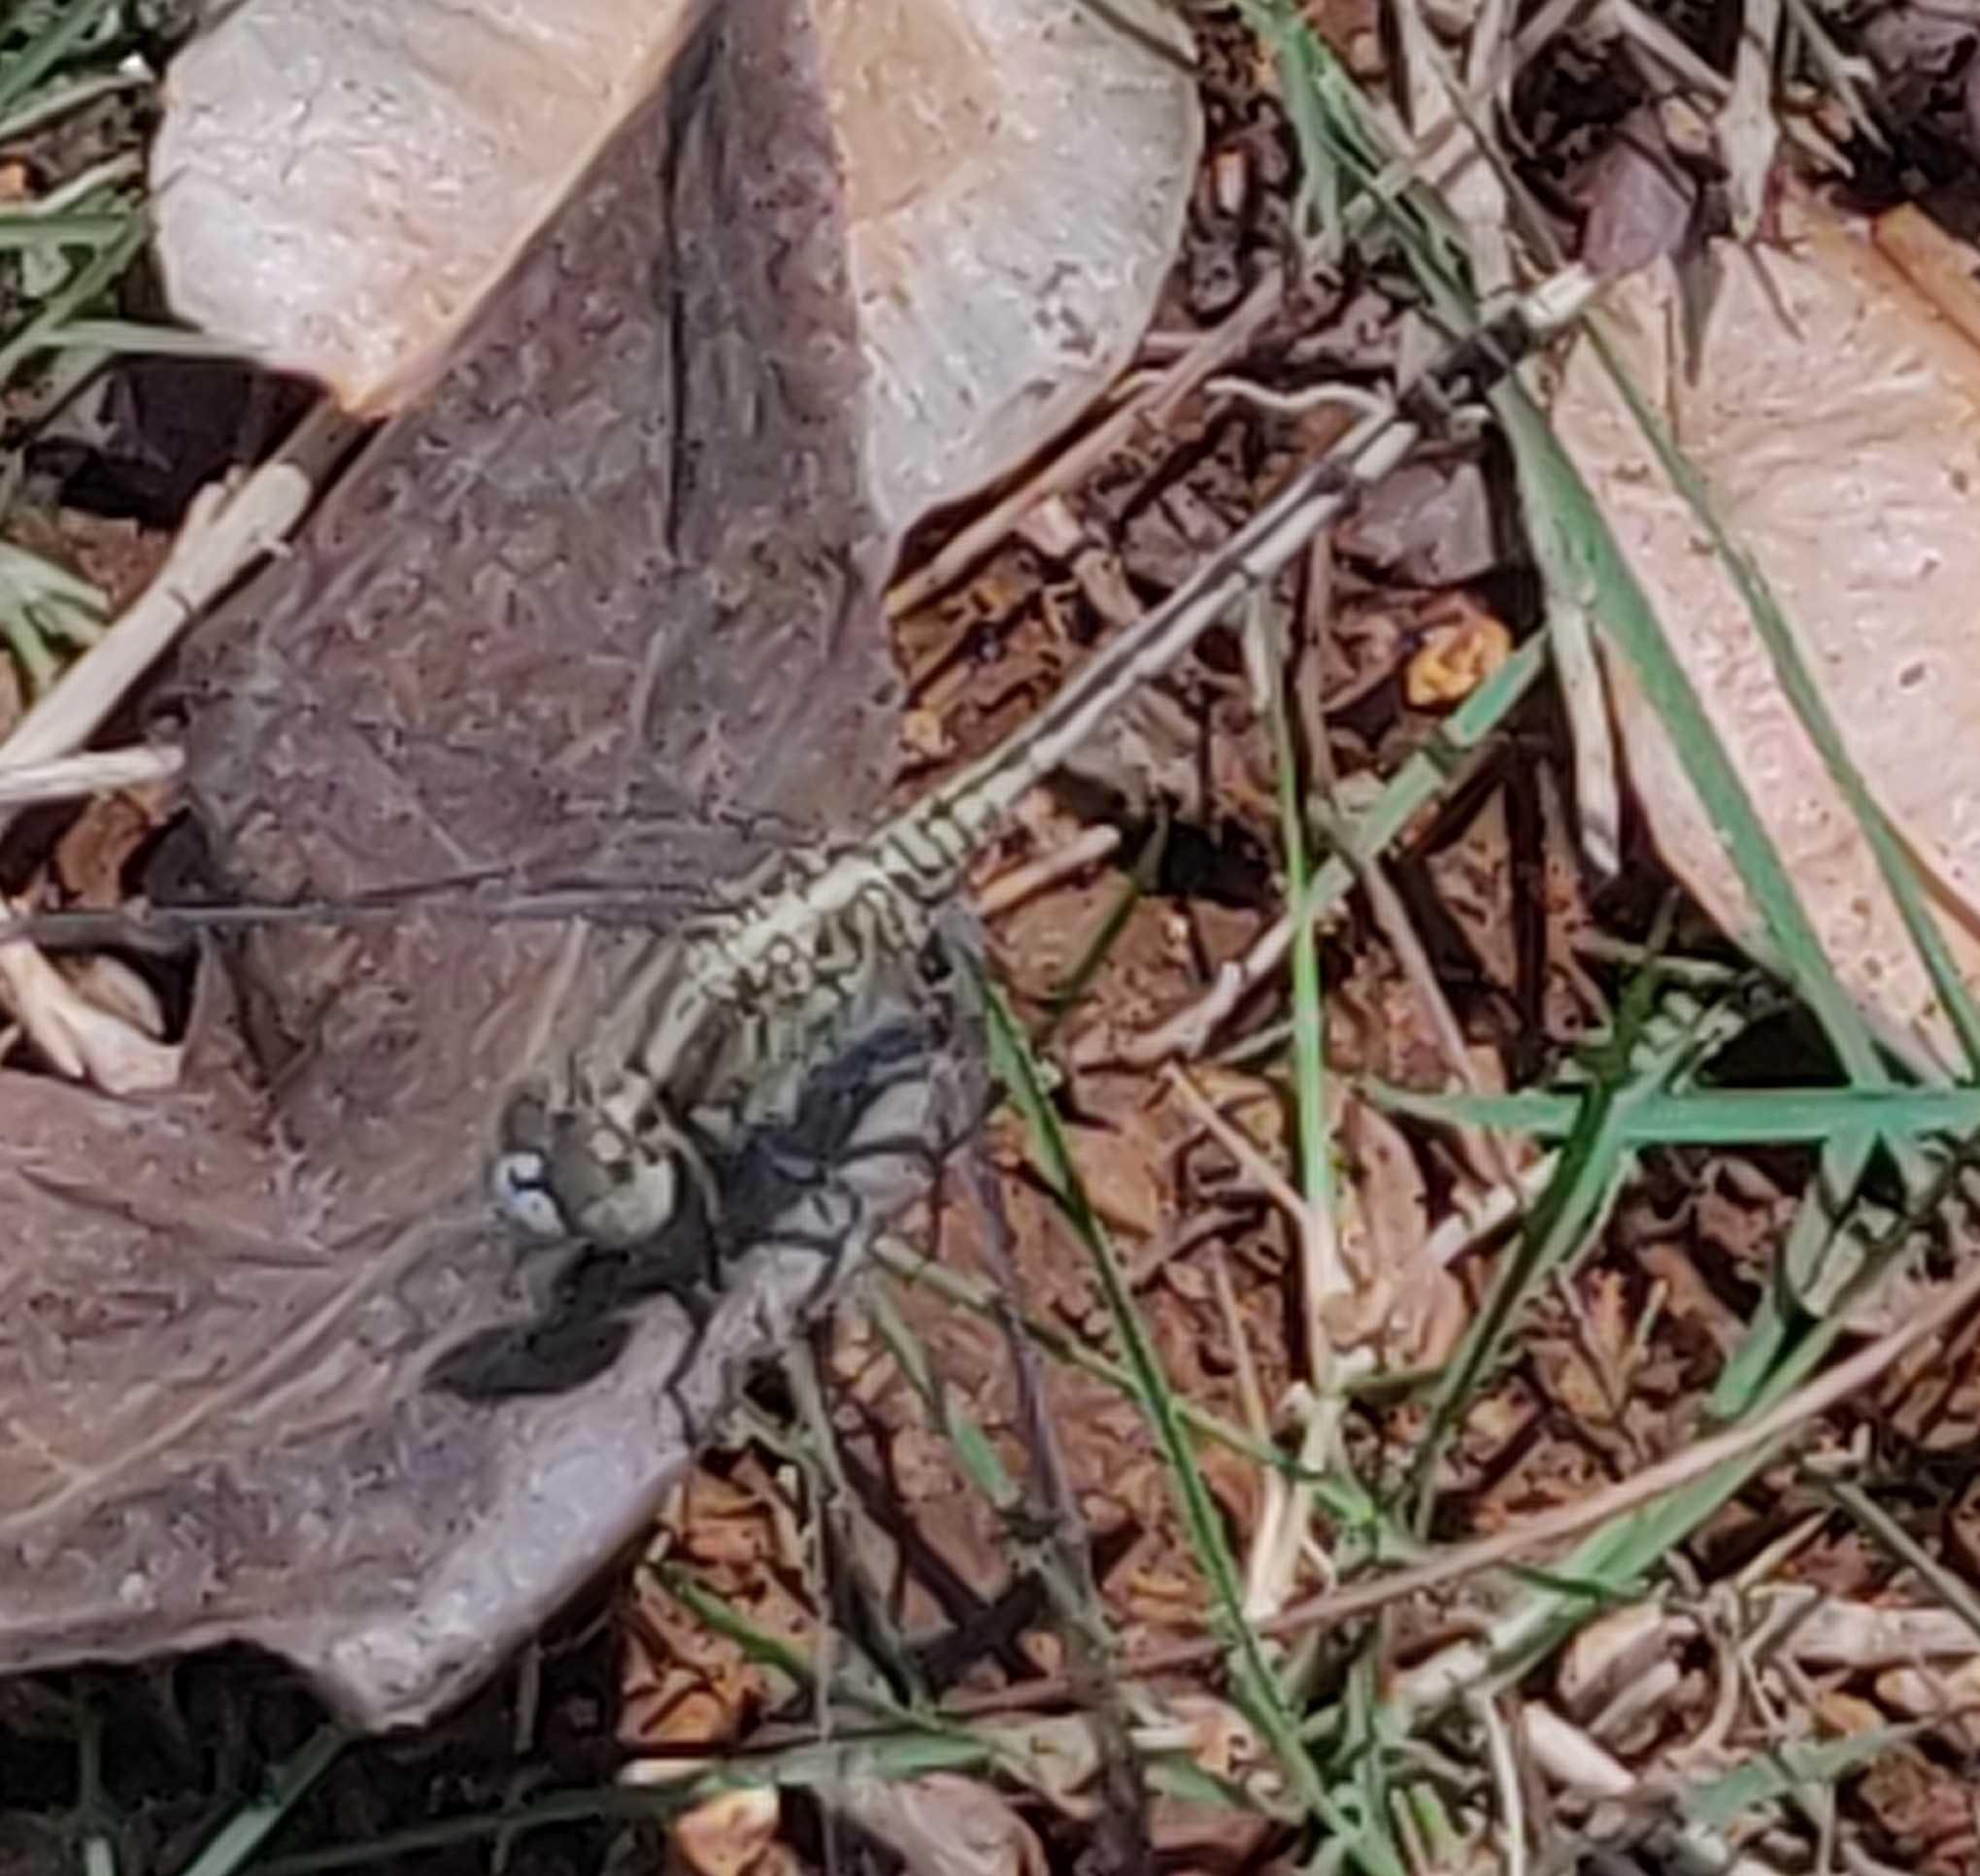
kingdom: Animalia
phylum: Arthropoda
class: Insecta
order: Odonata
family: Libellulidae
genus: Diplacodes
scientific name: Diplacodes trivialis
